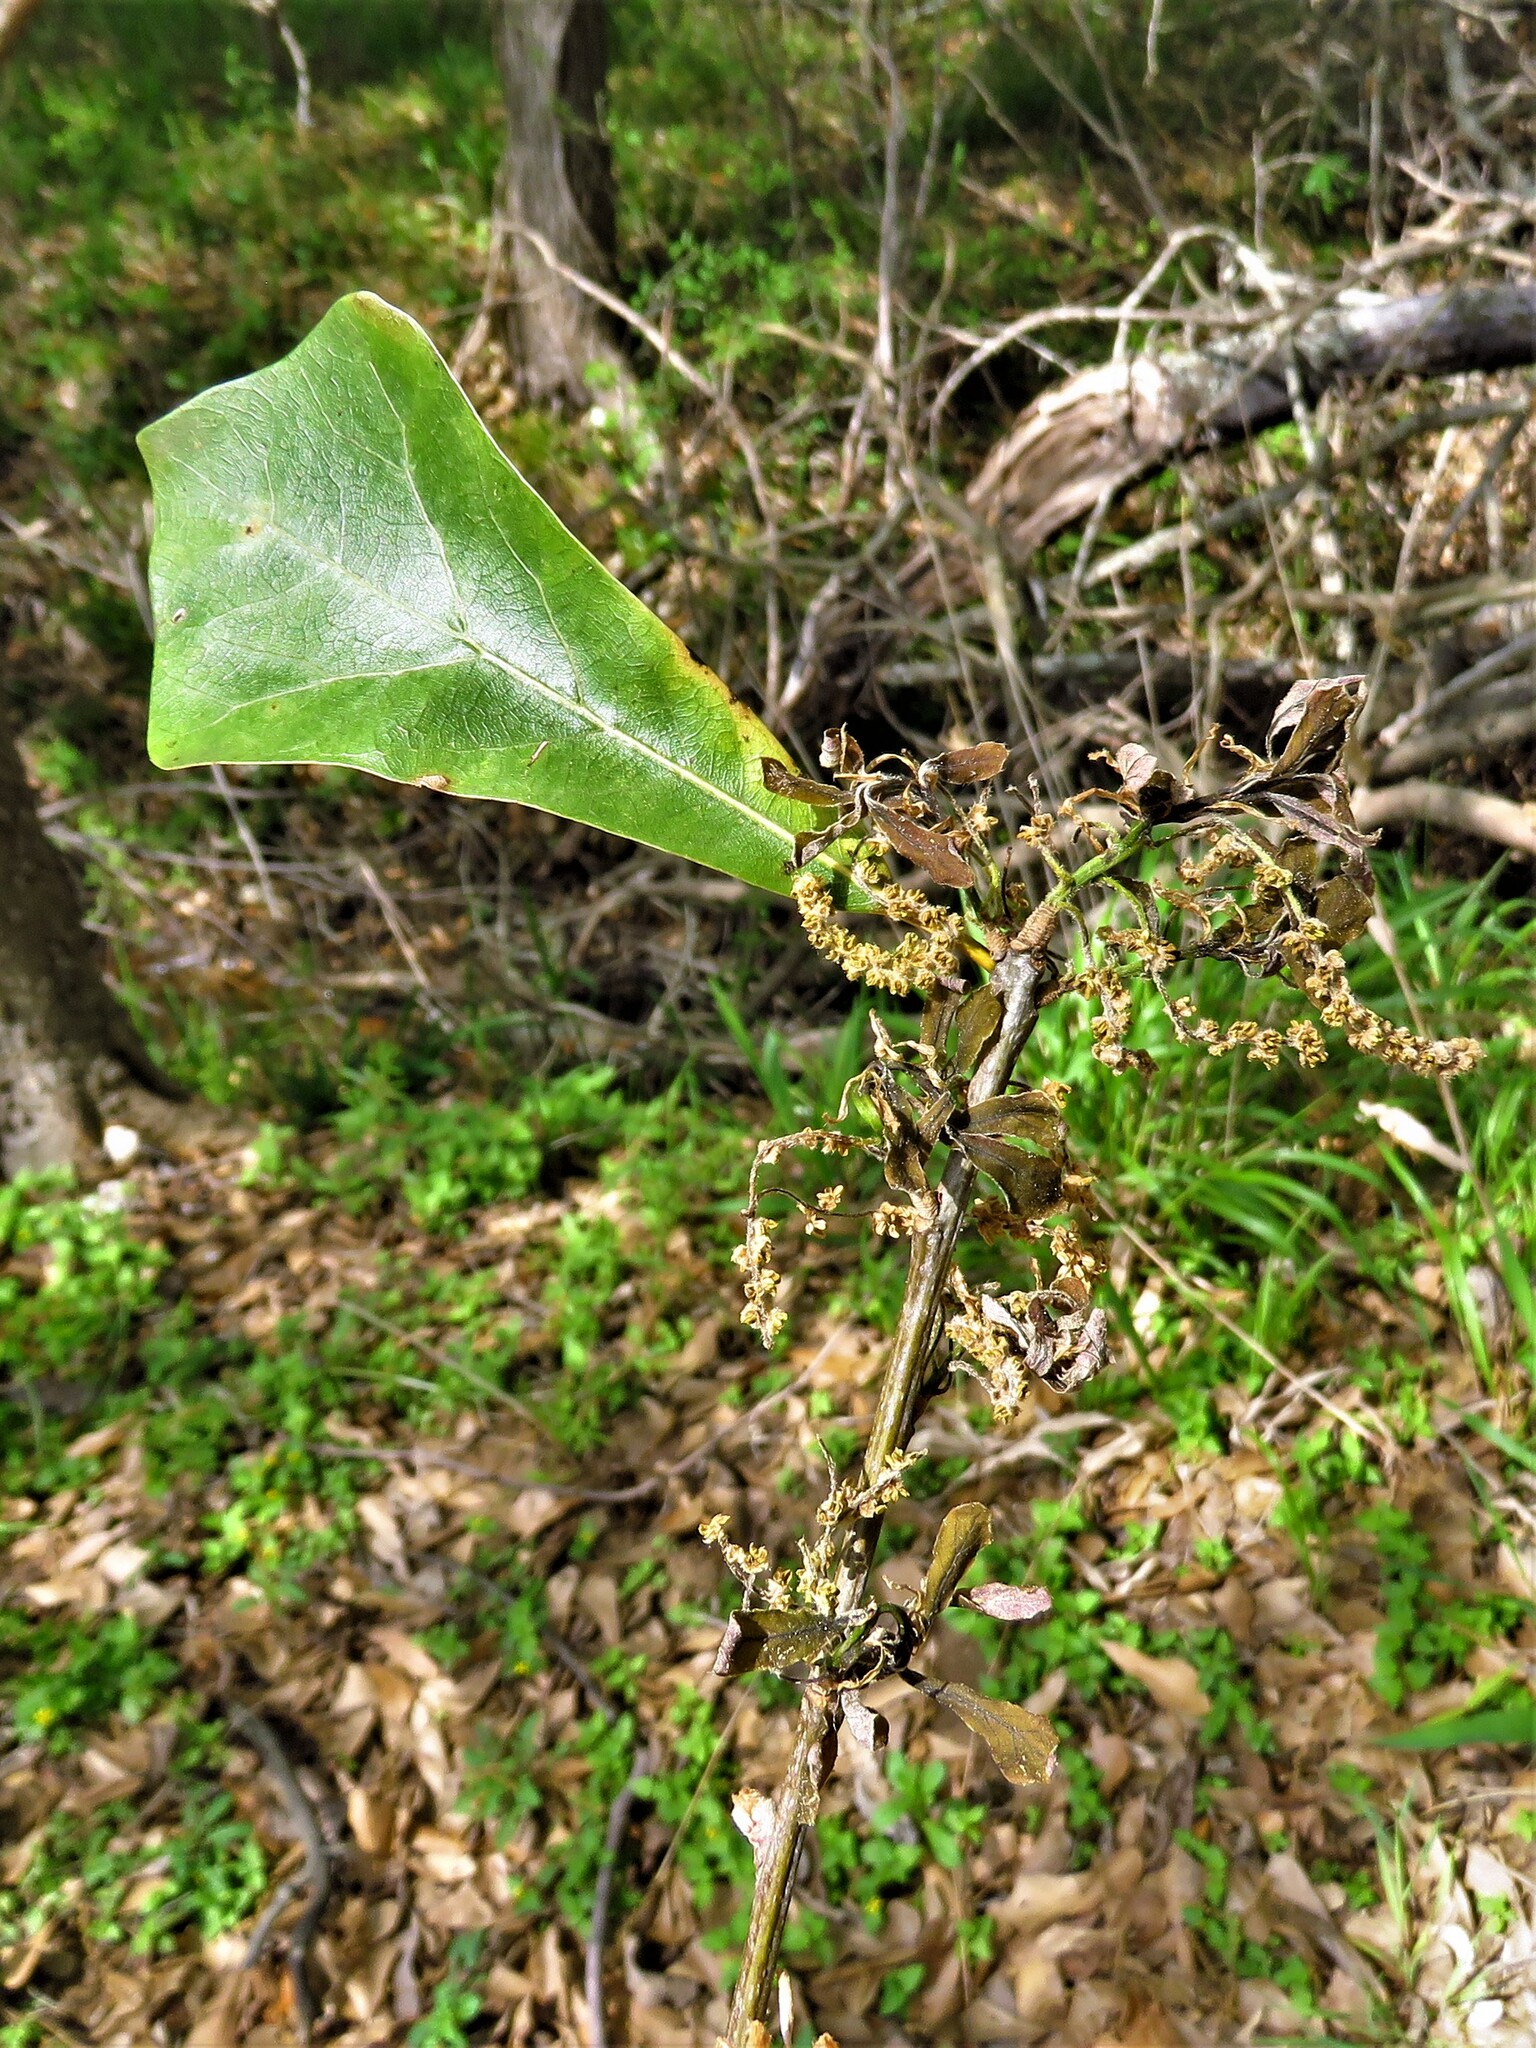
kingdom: Plantae
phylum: Tracheophyta
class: Magnoliopsida
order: Fagales
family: Fagaceae
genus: Quercus
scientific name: Quercus nigra
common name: Water oak
